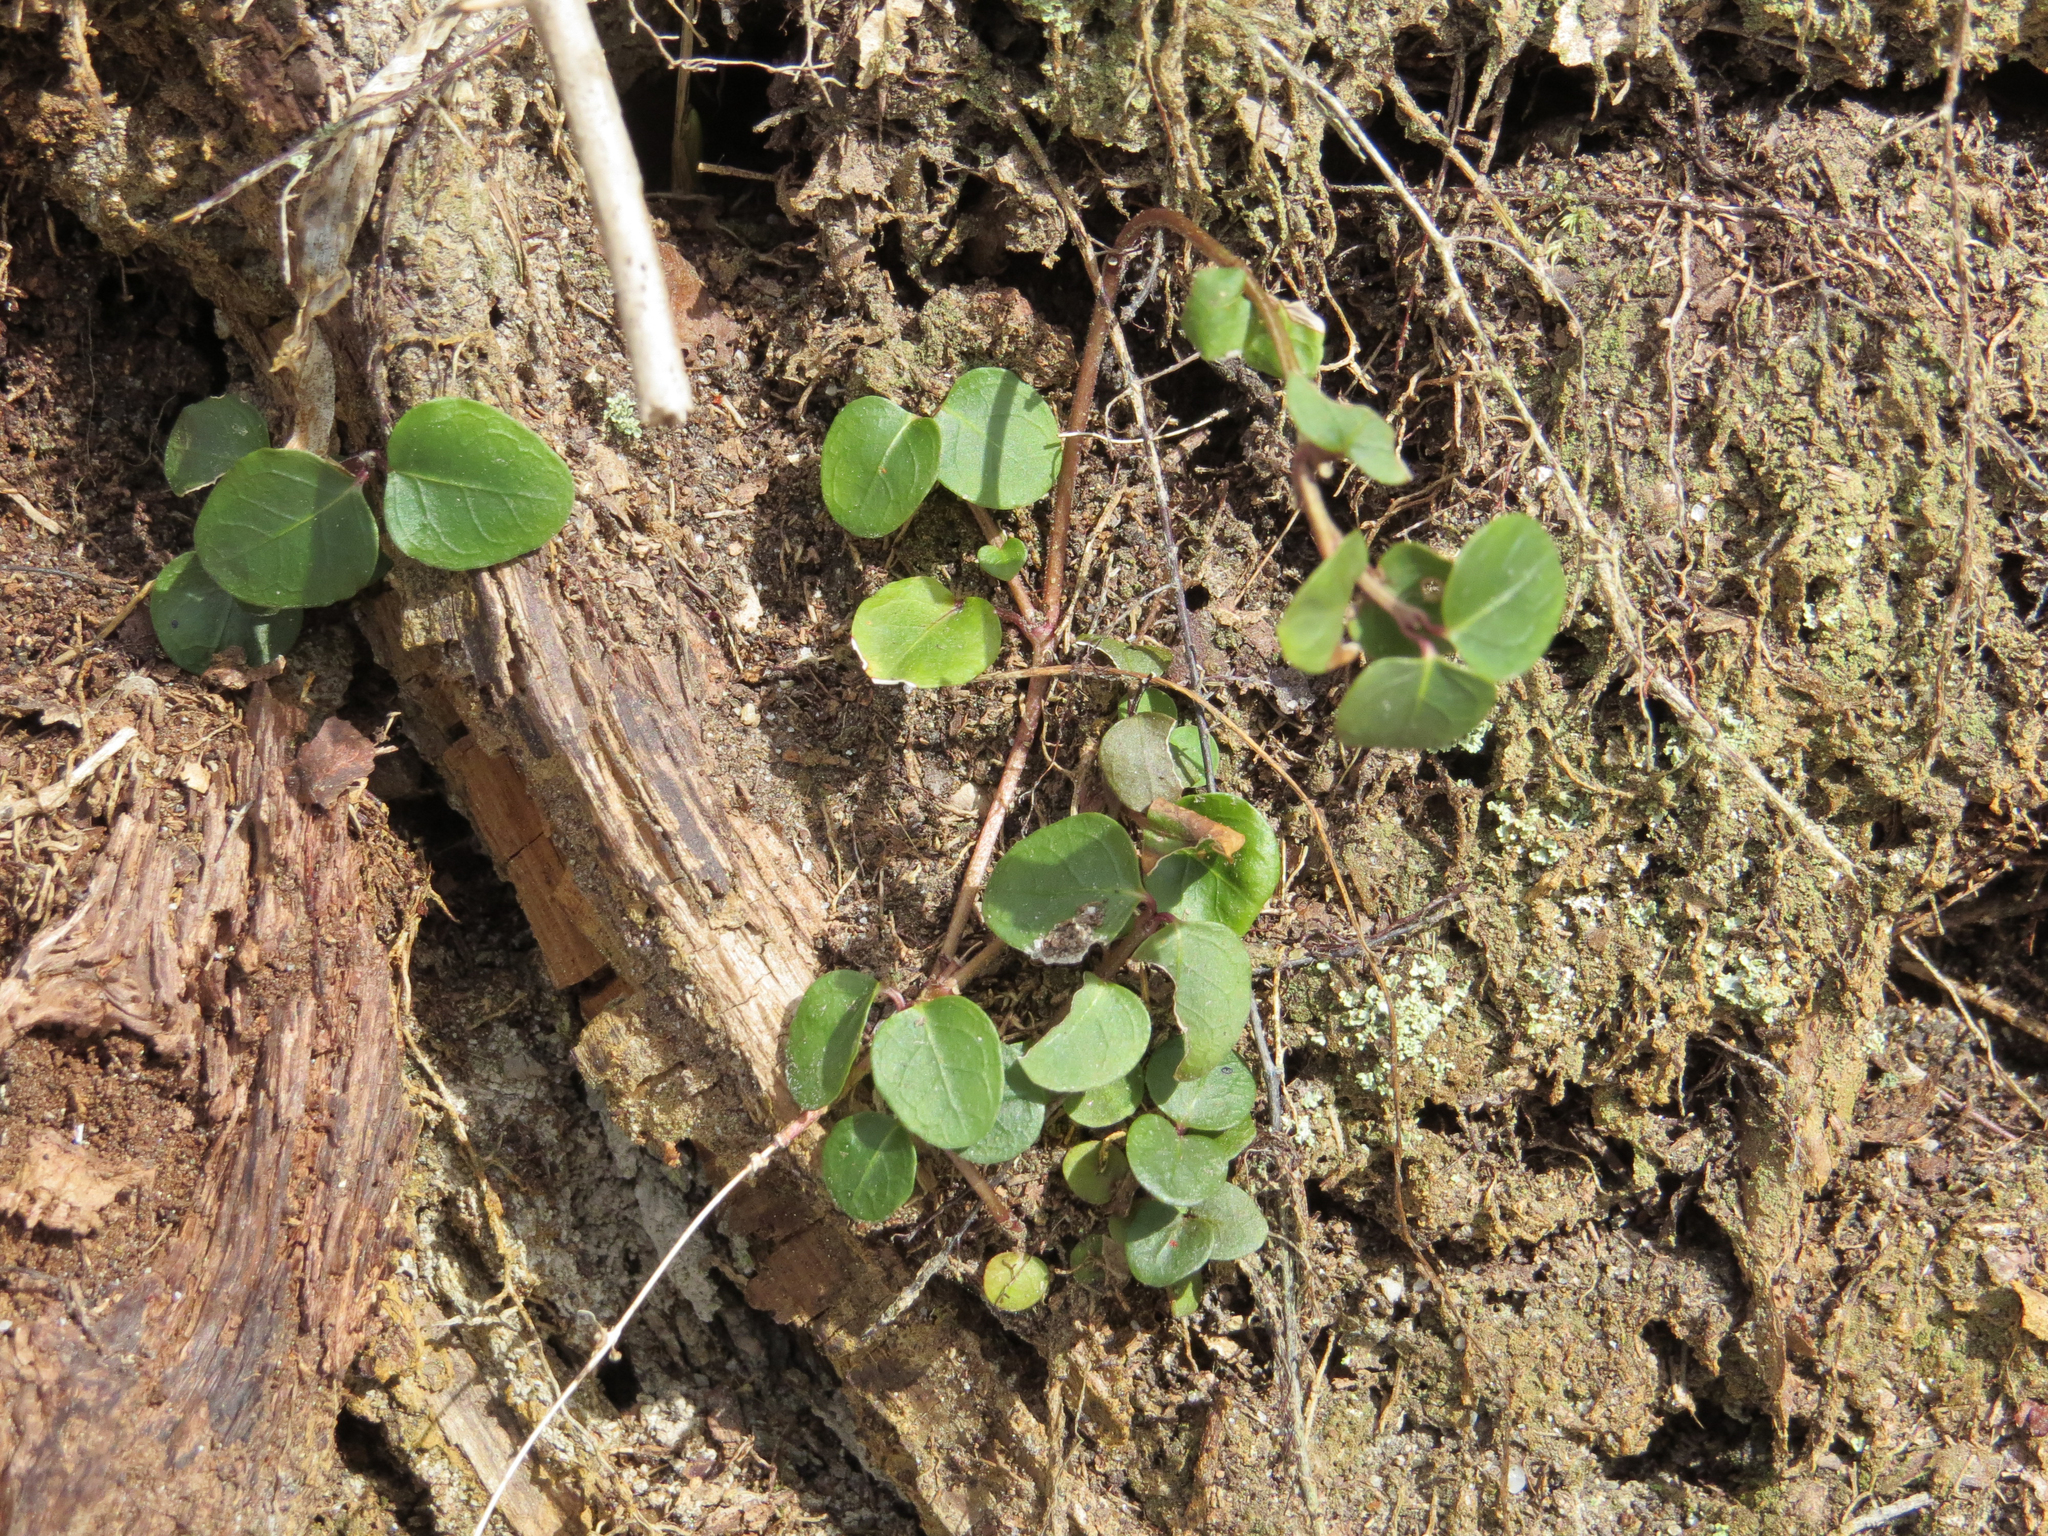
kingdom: Plantae
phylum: Tracheophyta
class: Magnoliopsida
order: Gentianales
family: Rubiaceae
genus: Mitchella
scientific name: Mitchella repens
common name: Partridge-berry
